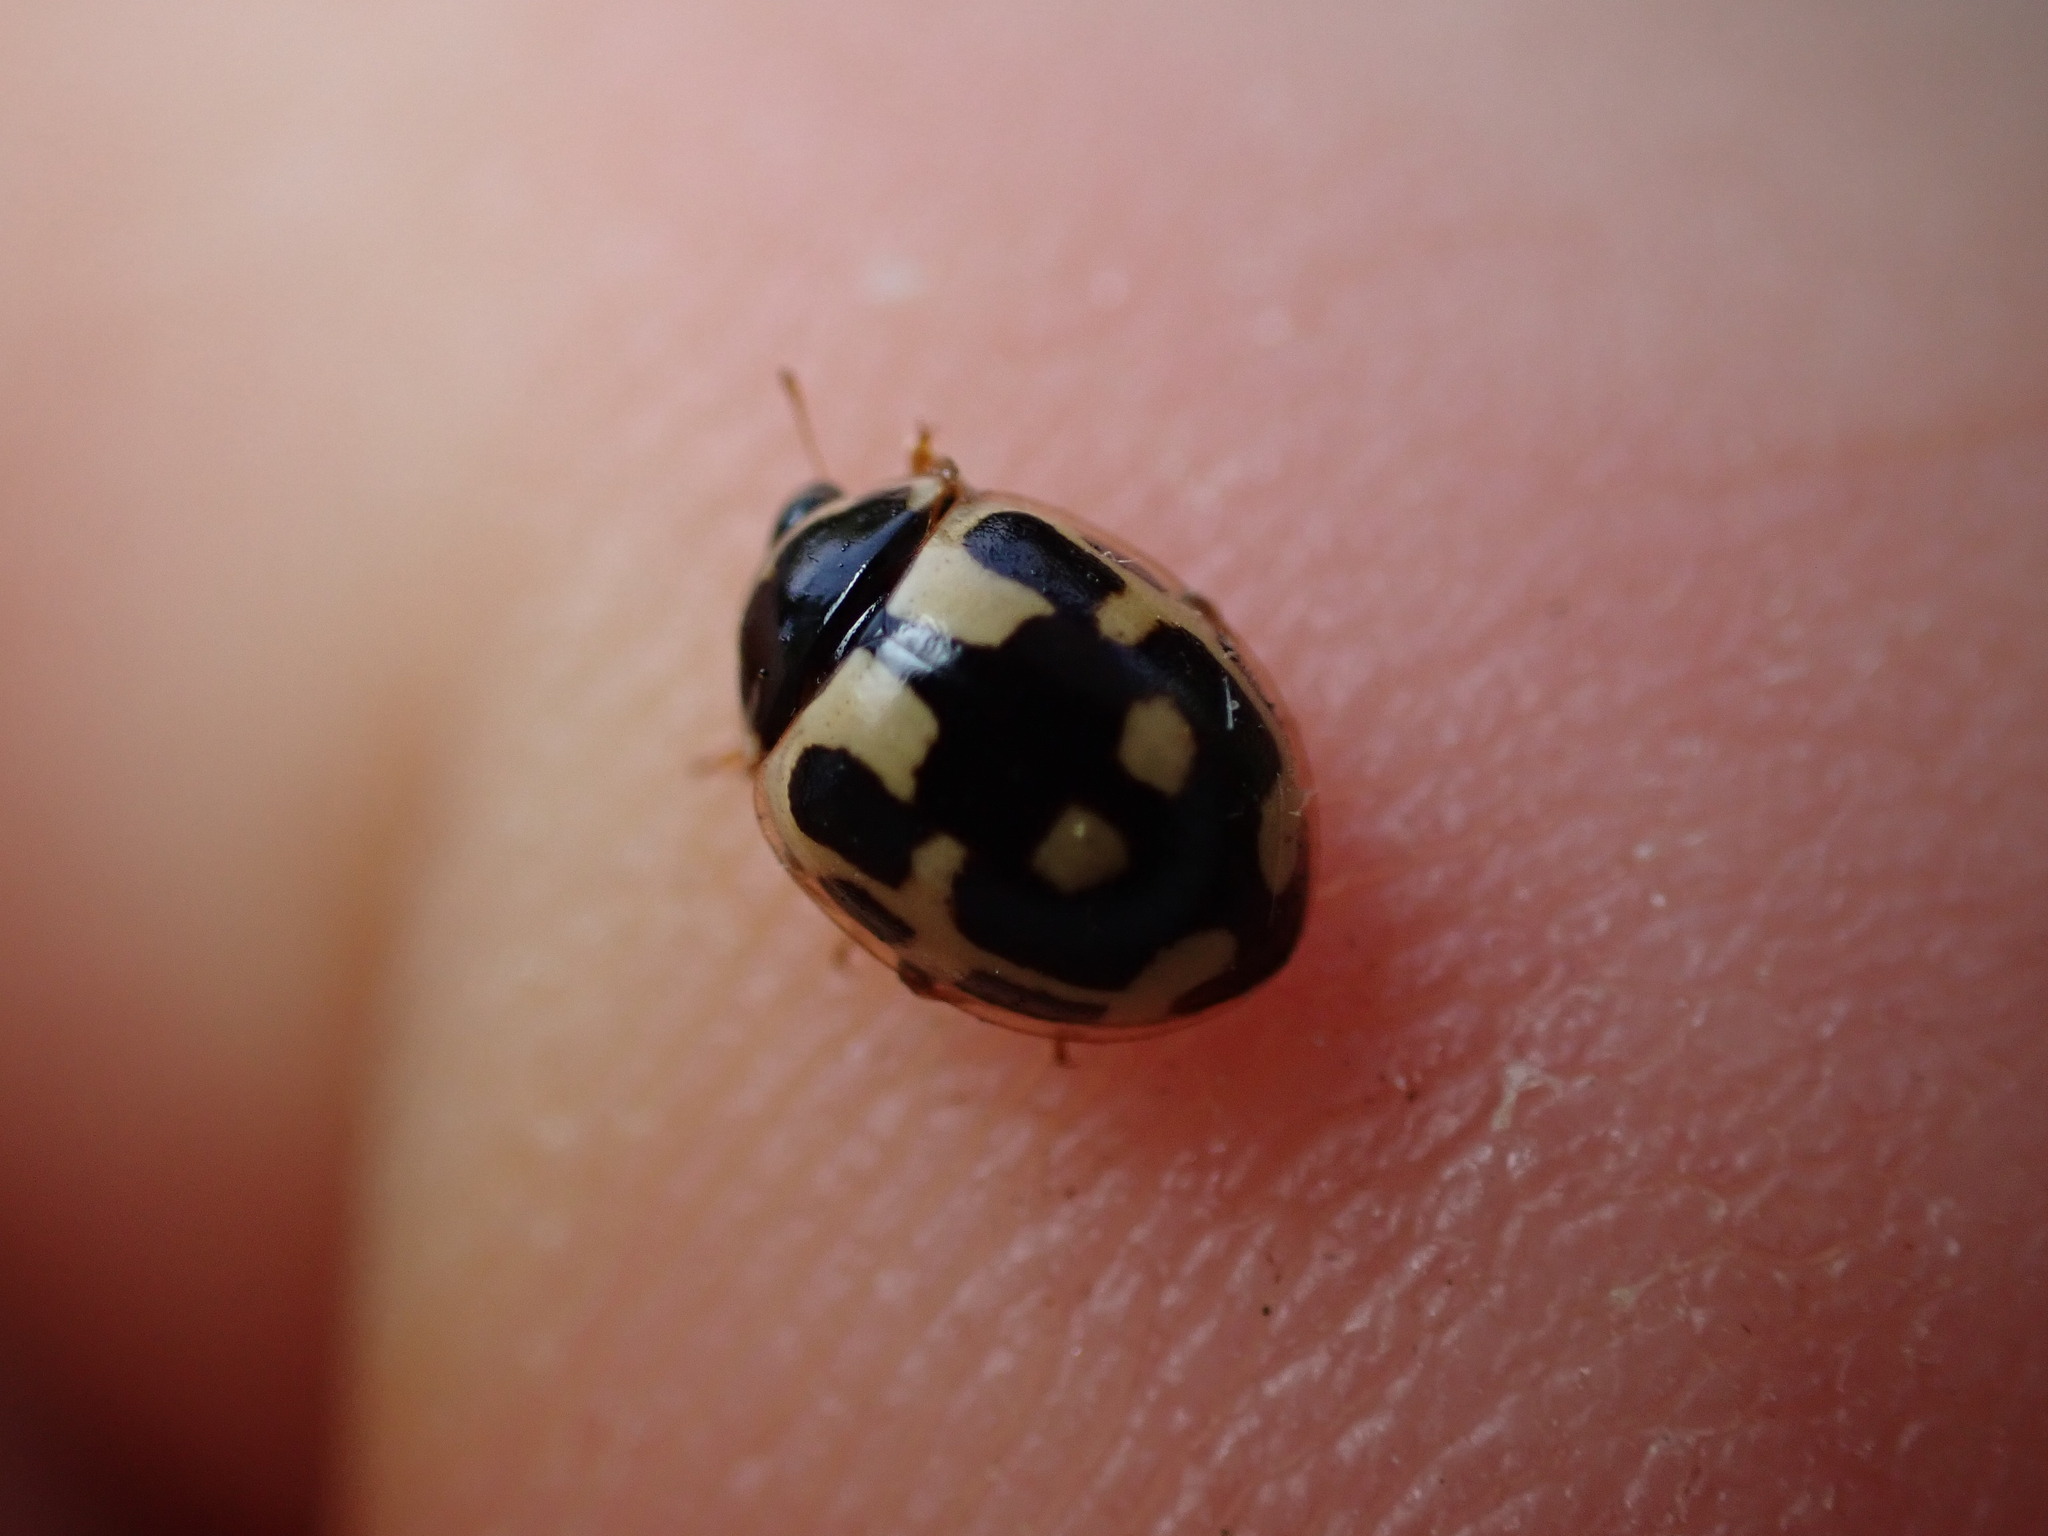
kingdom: Animalia
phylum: Arthropoda
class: Insecta
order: Coleoptera
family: Coccinellidae
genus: Propylaea
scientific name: Propylaea quatuordecimpunctata
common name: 14-spotted ladybird beetle
